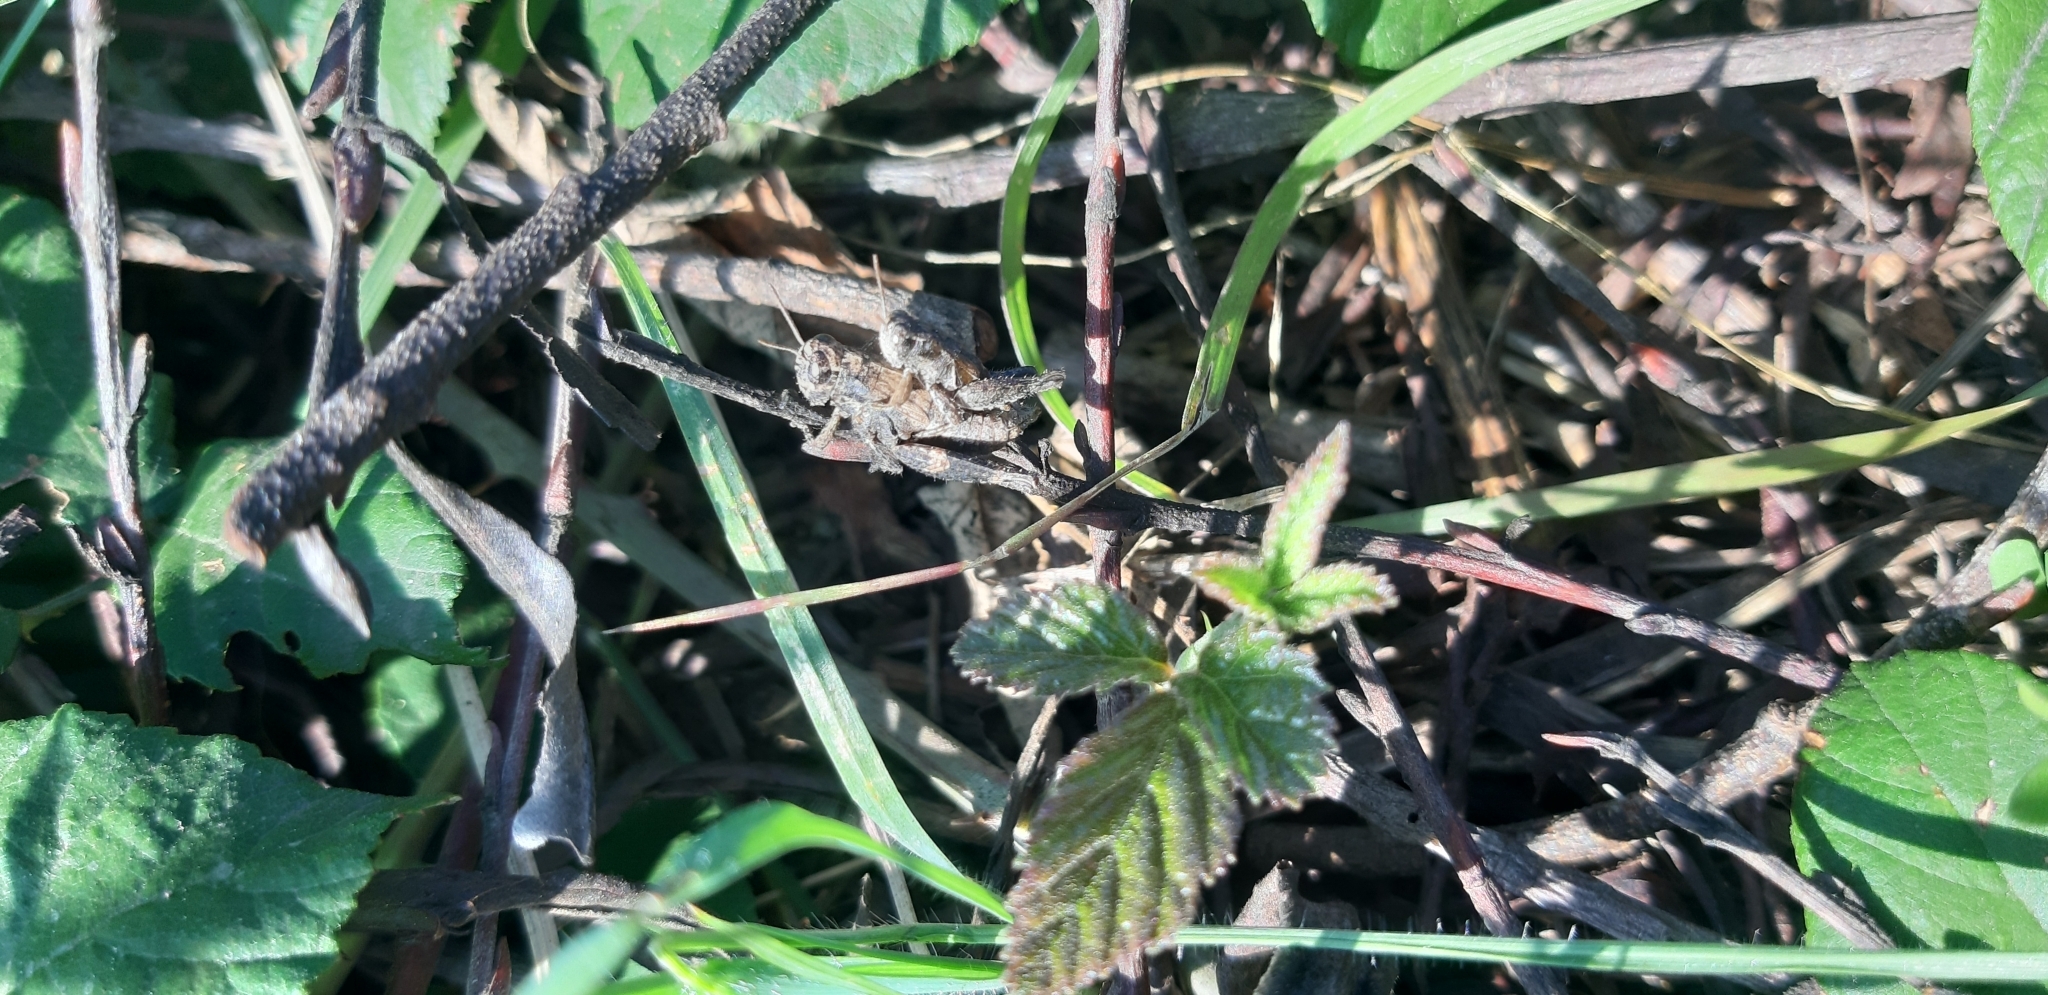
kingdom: Animalia
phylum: Arthropoda
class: Insecta
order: Orthoptera
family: Acrididae
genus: Pezotettix
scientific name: Pezotettix giornae
